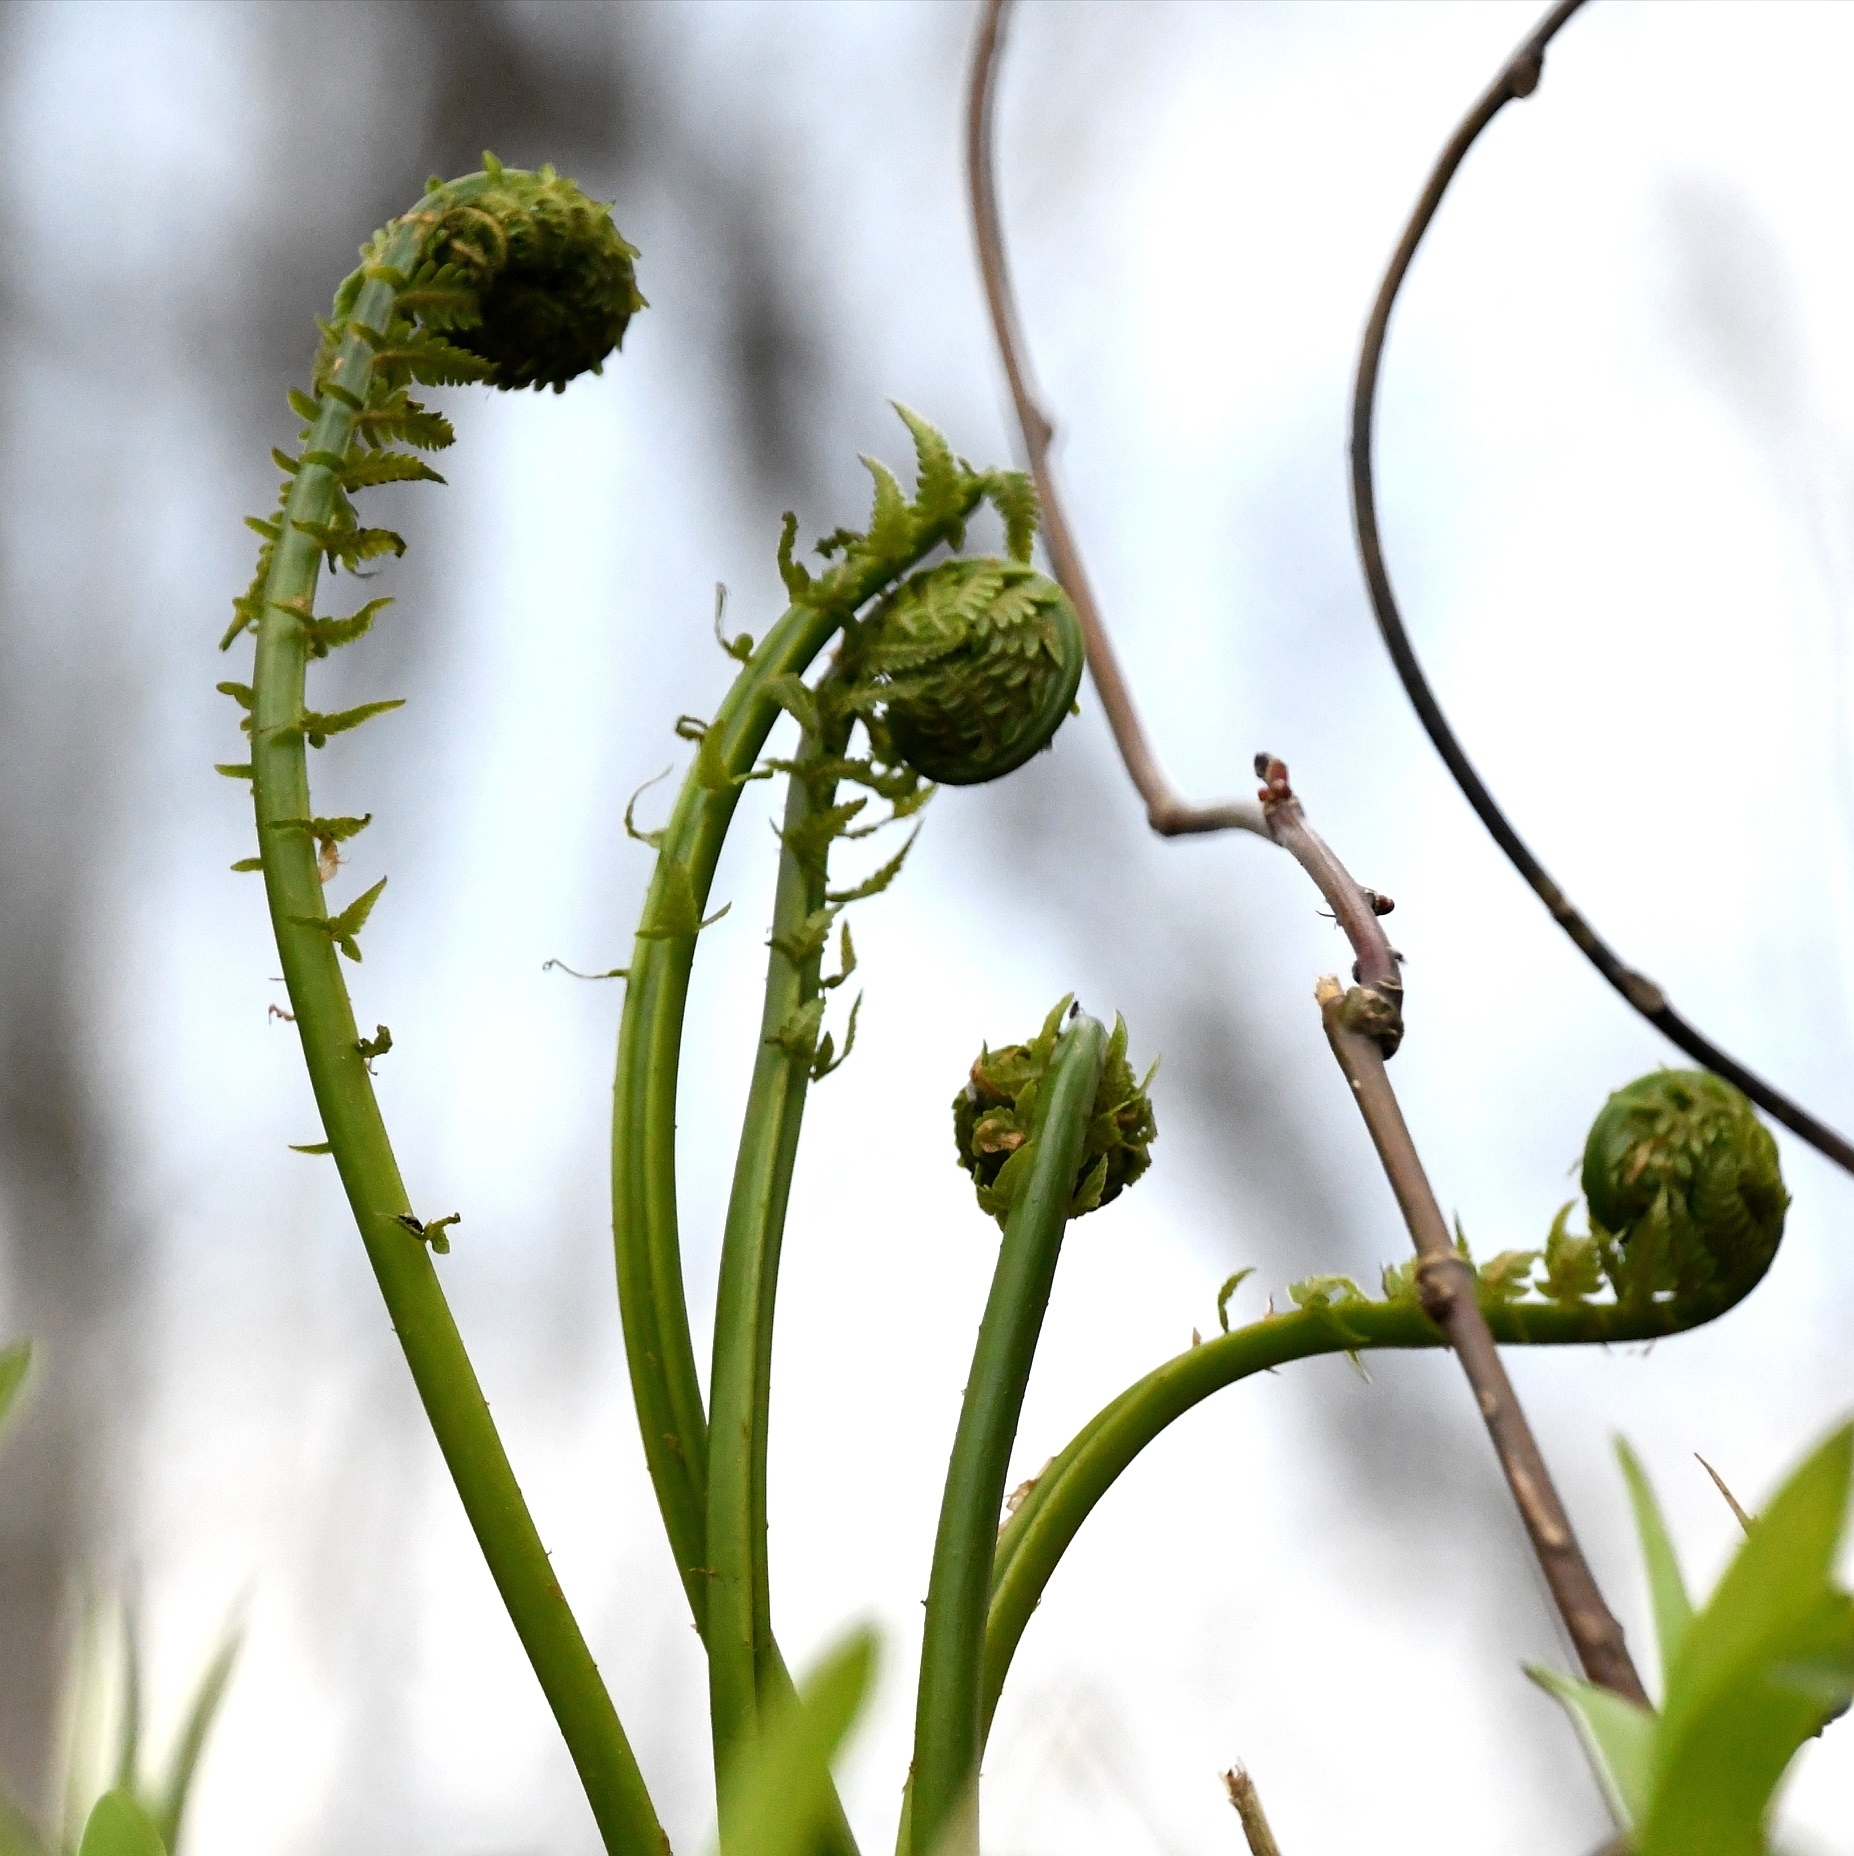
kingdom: Plantae
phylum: Tracheophyta
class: Polypodiopsida
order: Polypodiales
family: Onocleaceae
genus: Matteuccia
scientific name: Matteuccia struthiopteris
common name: Ostrich fern
